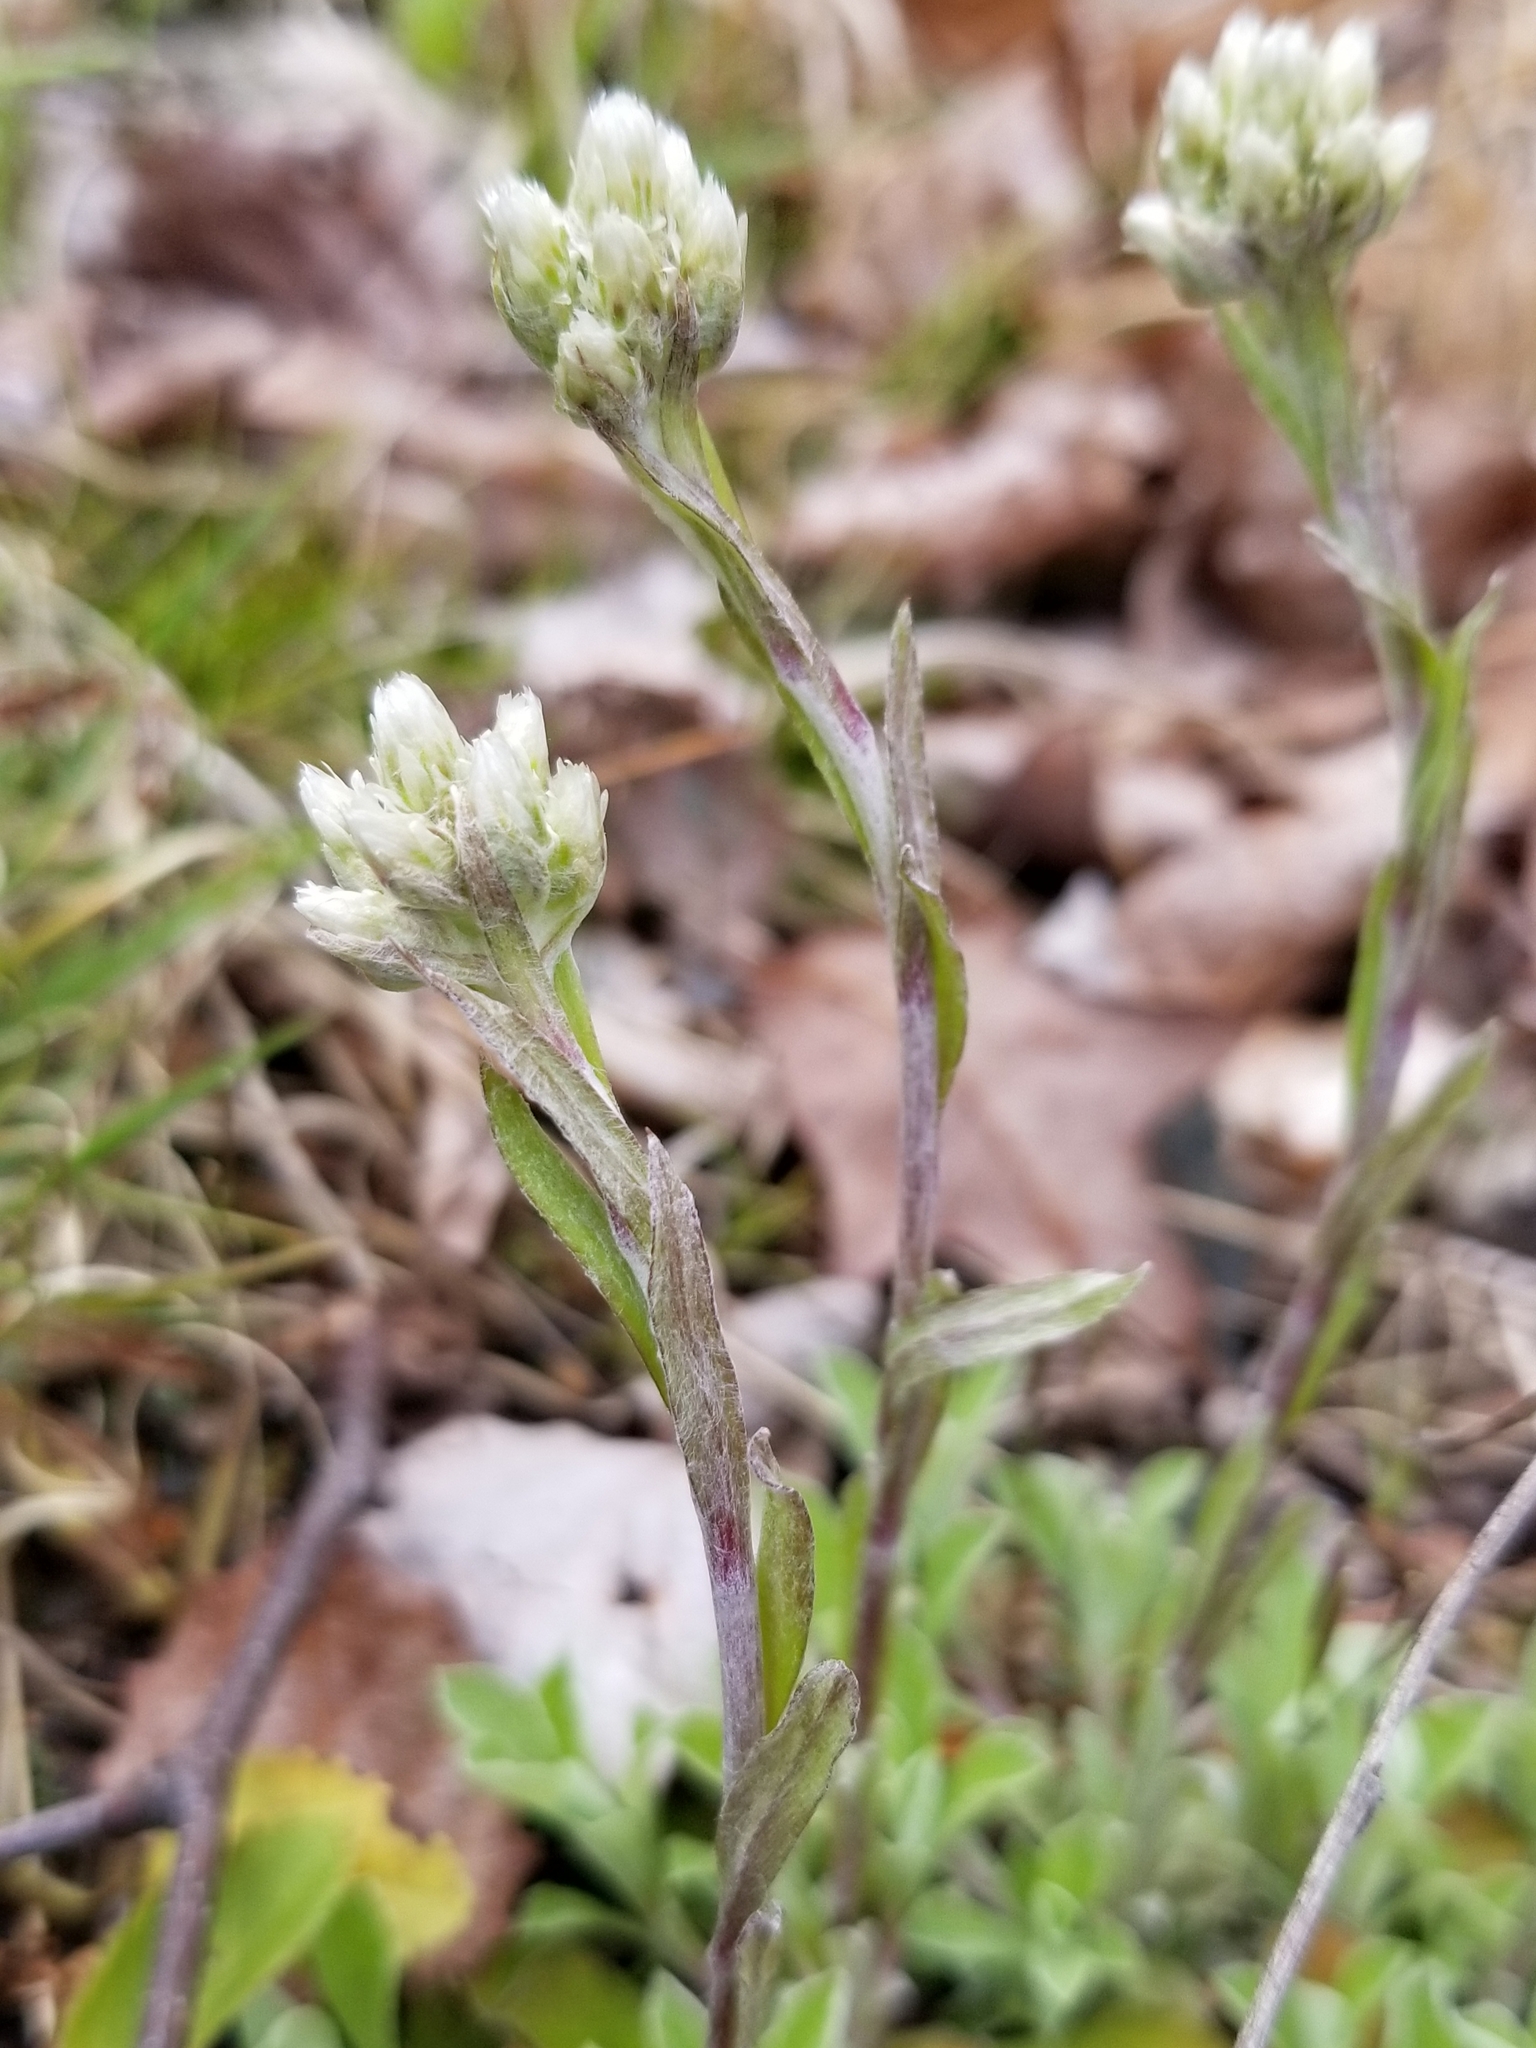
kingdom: Plantae
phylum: Tracheophyta
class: Magnoliopsida
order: Asterales
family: Asteraceae
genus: Antennaria
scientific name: Antennaria howellii
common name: Howell's pussytoes
